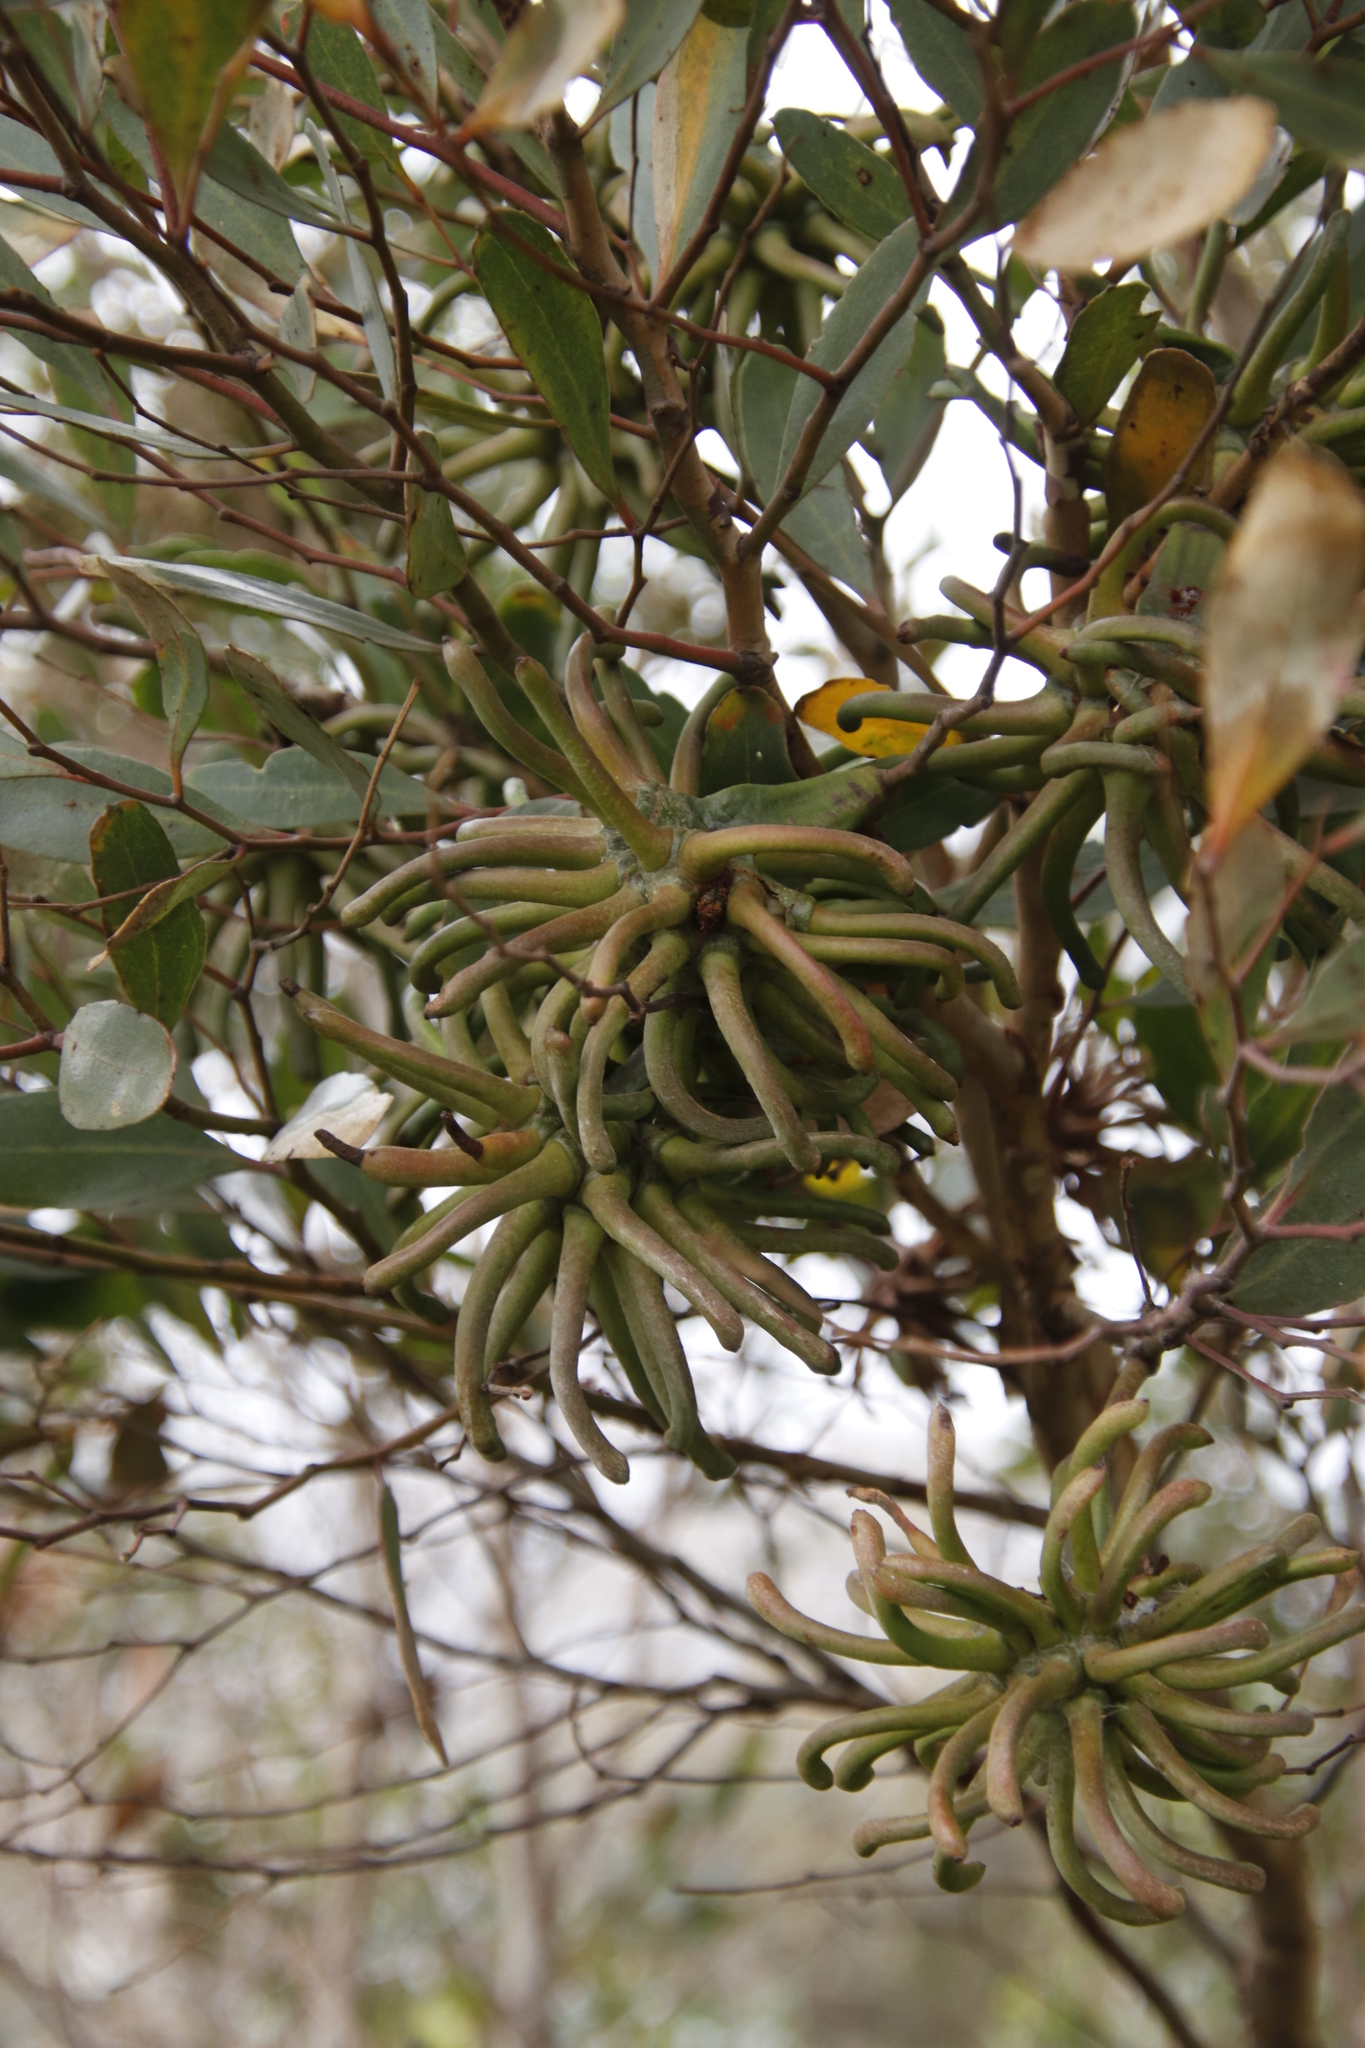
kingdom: Plantae
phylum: Tracheophyta
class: Magnoliopsida
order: Myrtales
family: Myrtaceae
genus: Eucalyptus
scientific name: Eucalyptus conferruminata
